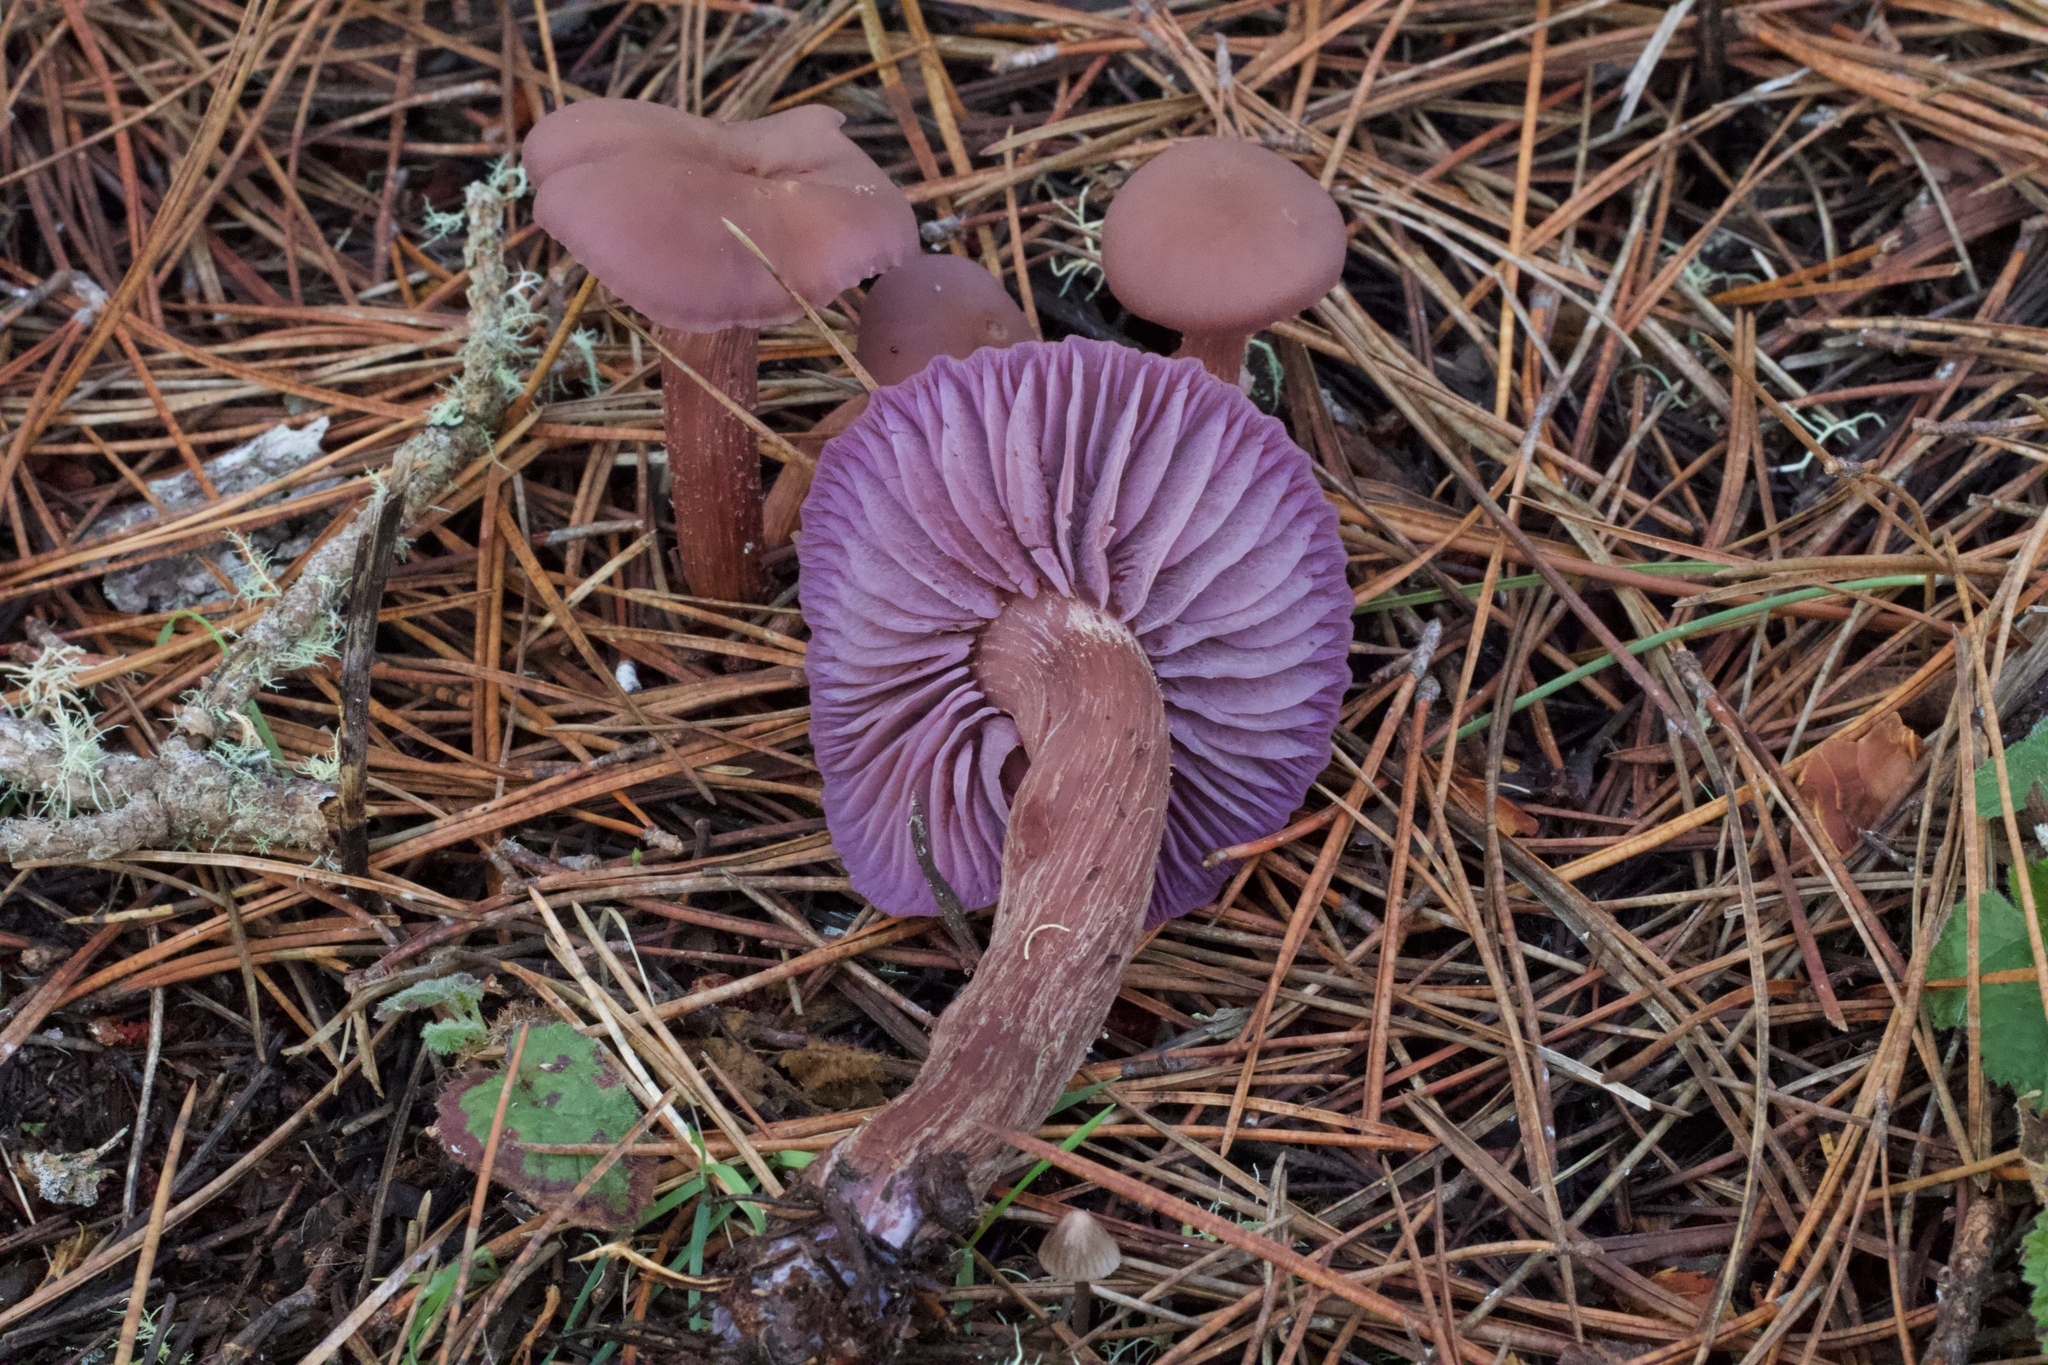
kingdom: Fungi
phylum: Basidiomycota
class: Agaricomycetes
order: Agaricales
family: Hydnangiaceae
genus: Laccaria
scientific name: Laccaria amethysteo-occidentalis
